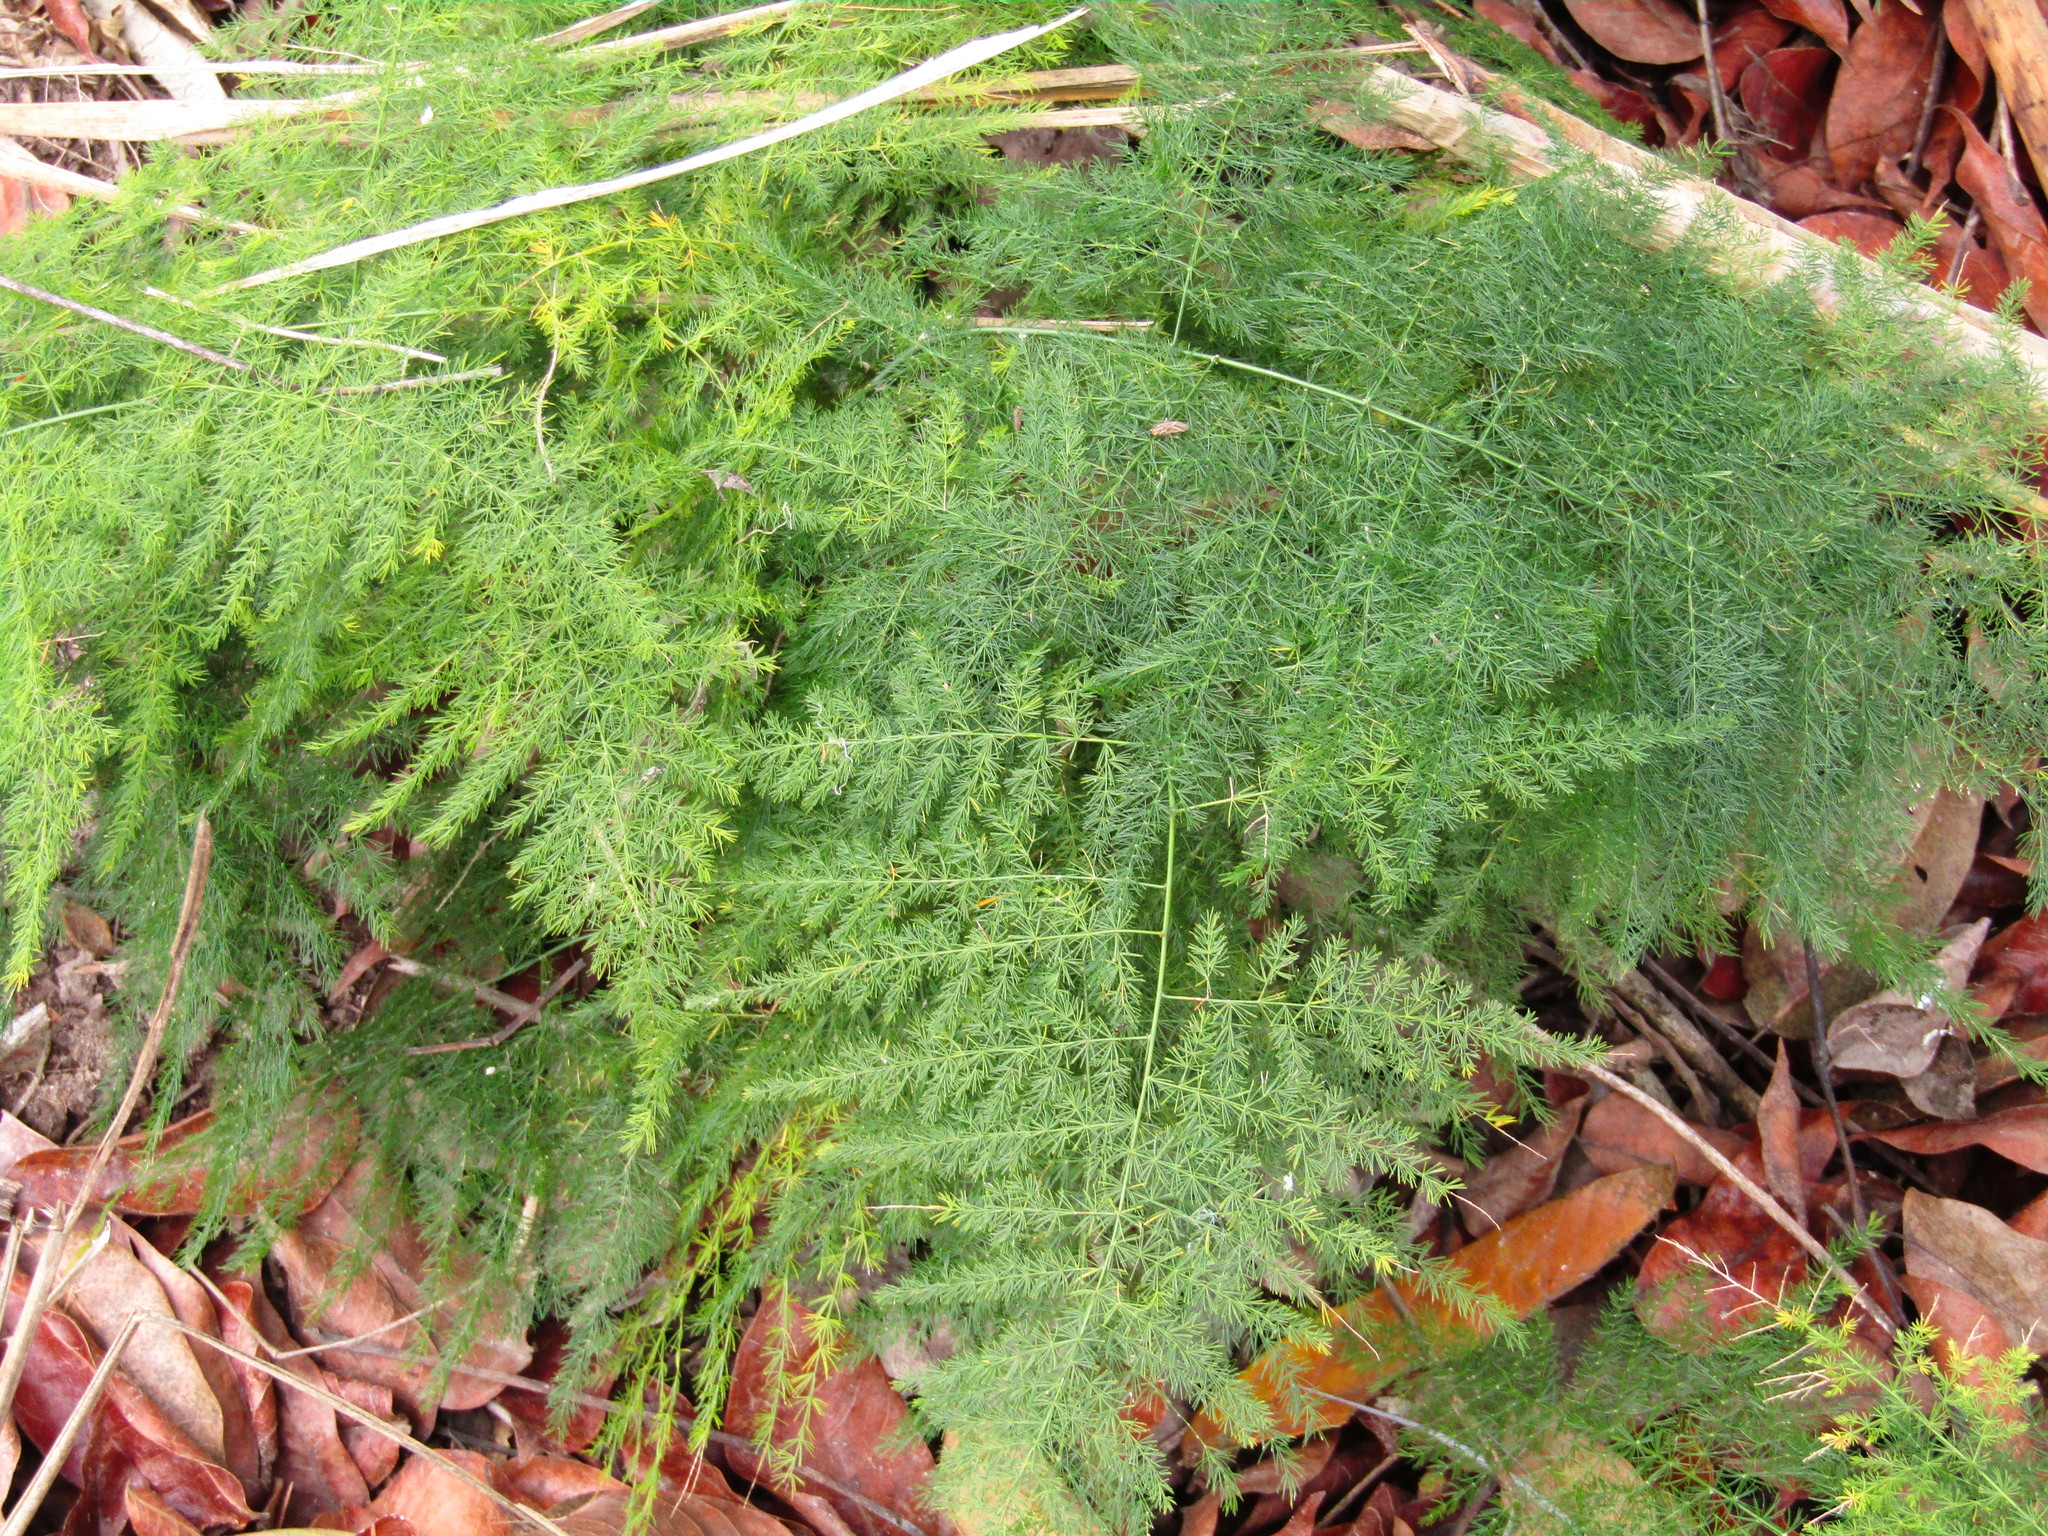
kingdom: Plantae
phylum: Tracheophyta
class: Liliopsida
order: Asparagales
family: Asparagaceae
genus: Asparagus
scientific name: Asparagus setaceus
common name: Common asparagus fern
